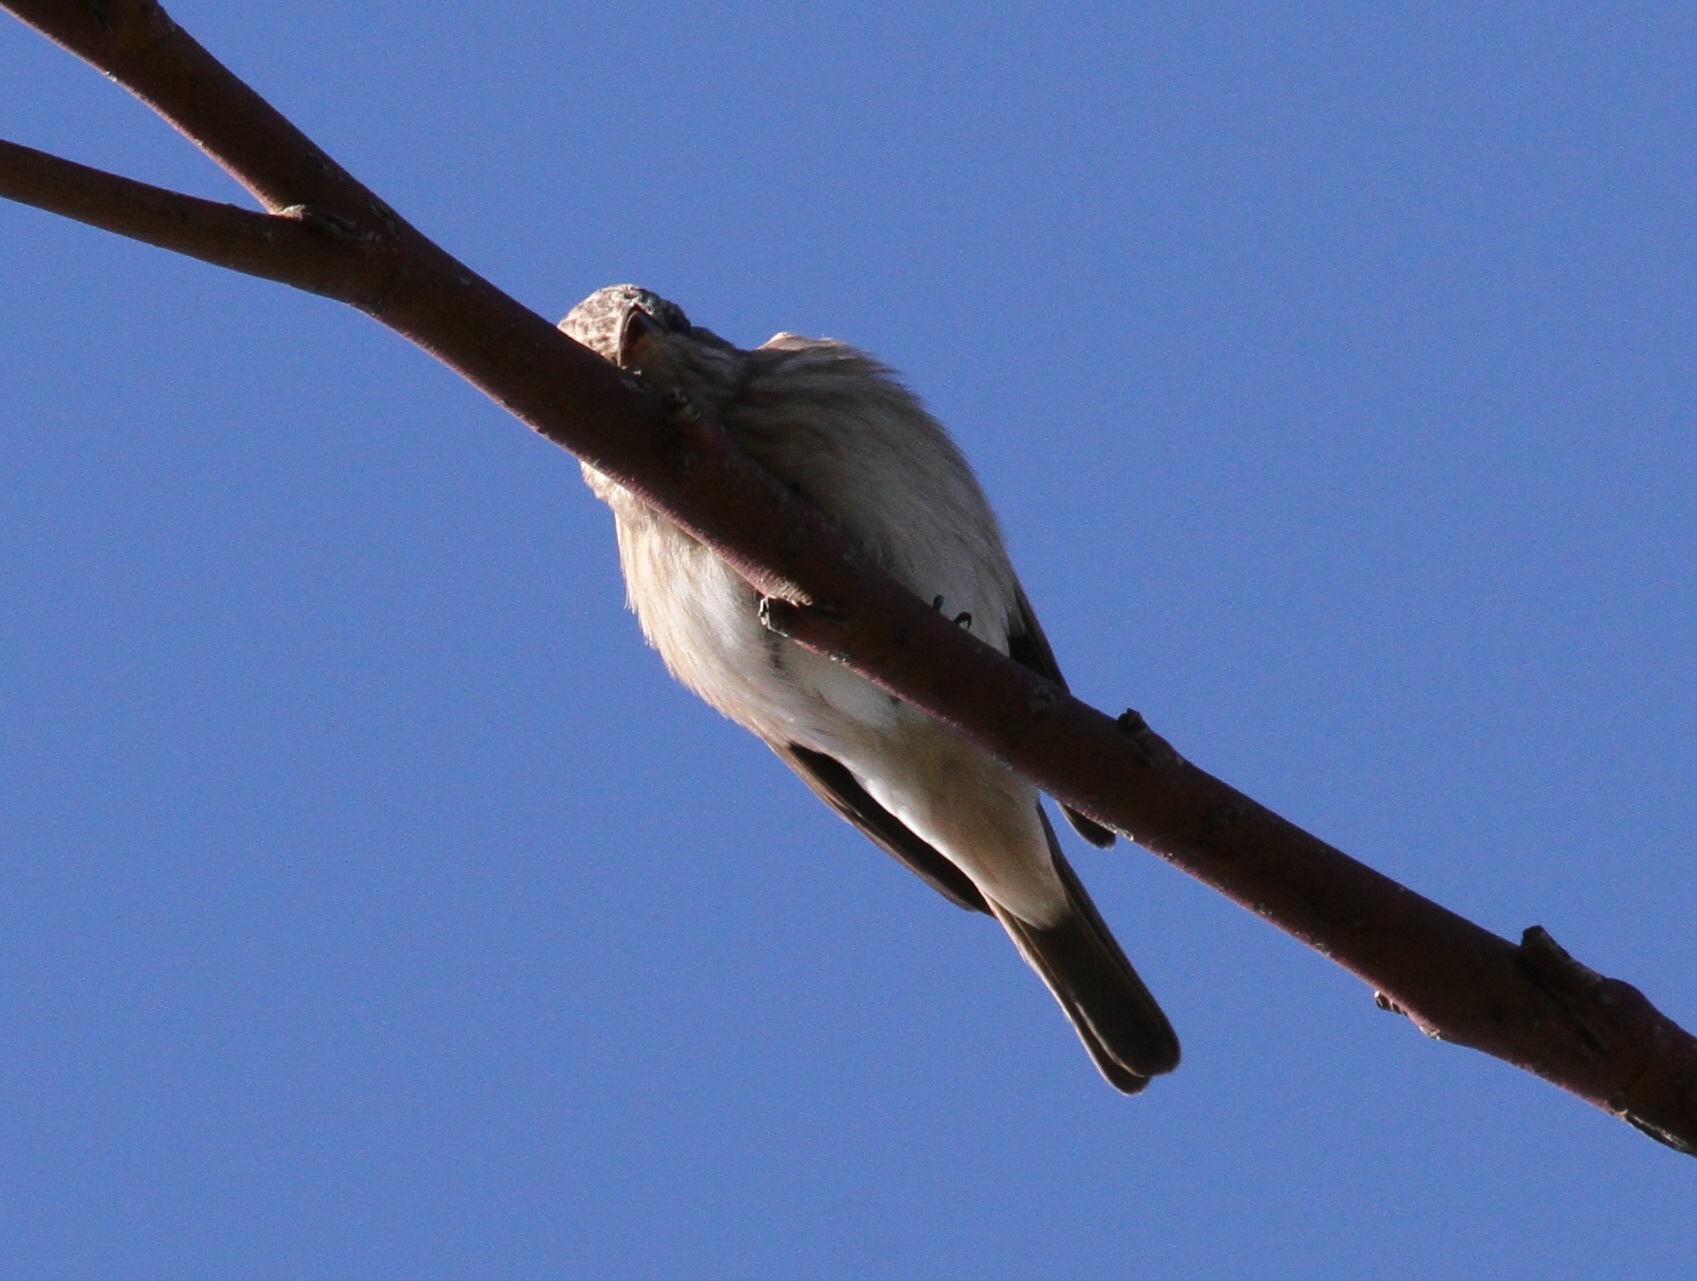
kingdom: Animalia
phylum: Chordata
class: Aves
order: Passeriformes
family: Muscicapidae
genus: Muscicapa
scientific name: Muscicapa striata
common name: Spotted flycatcher
